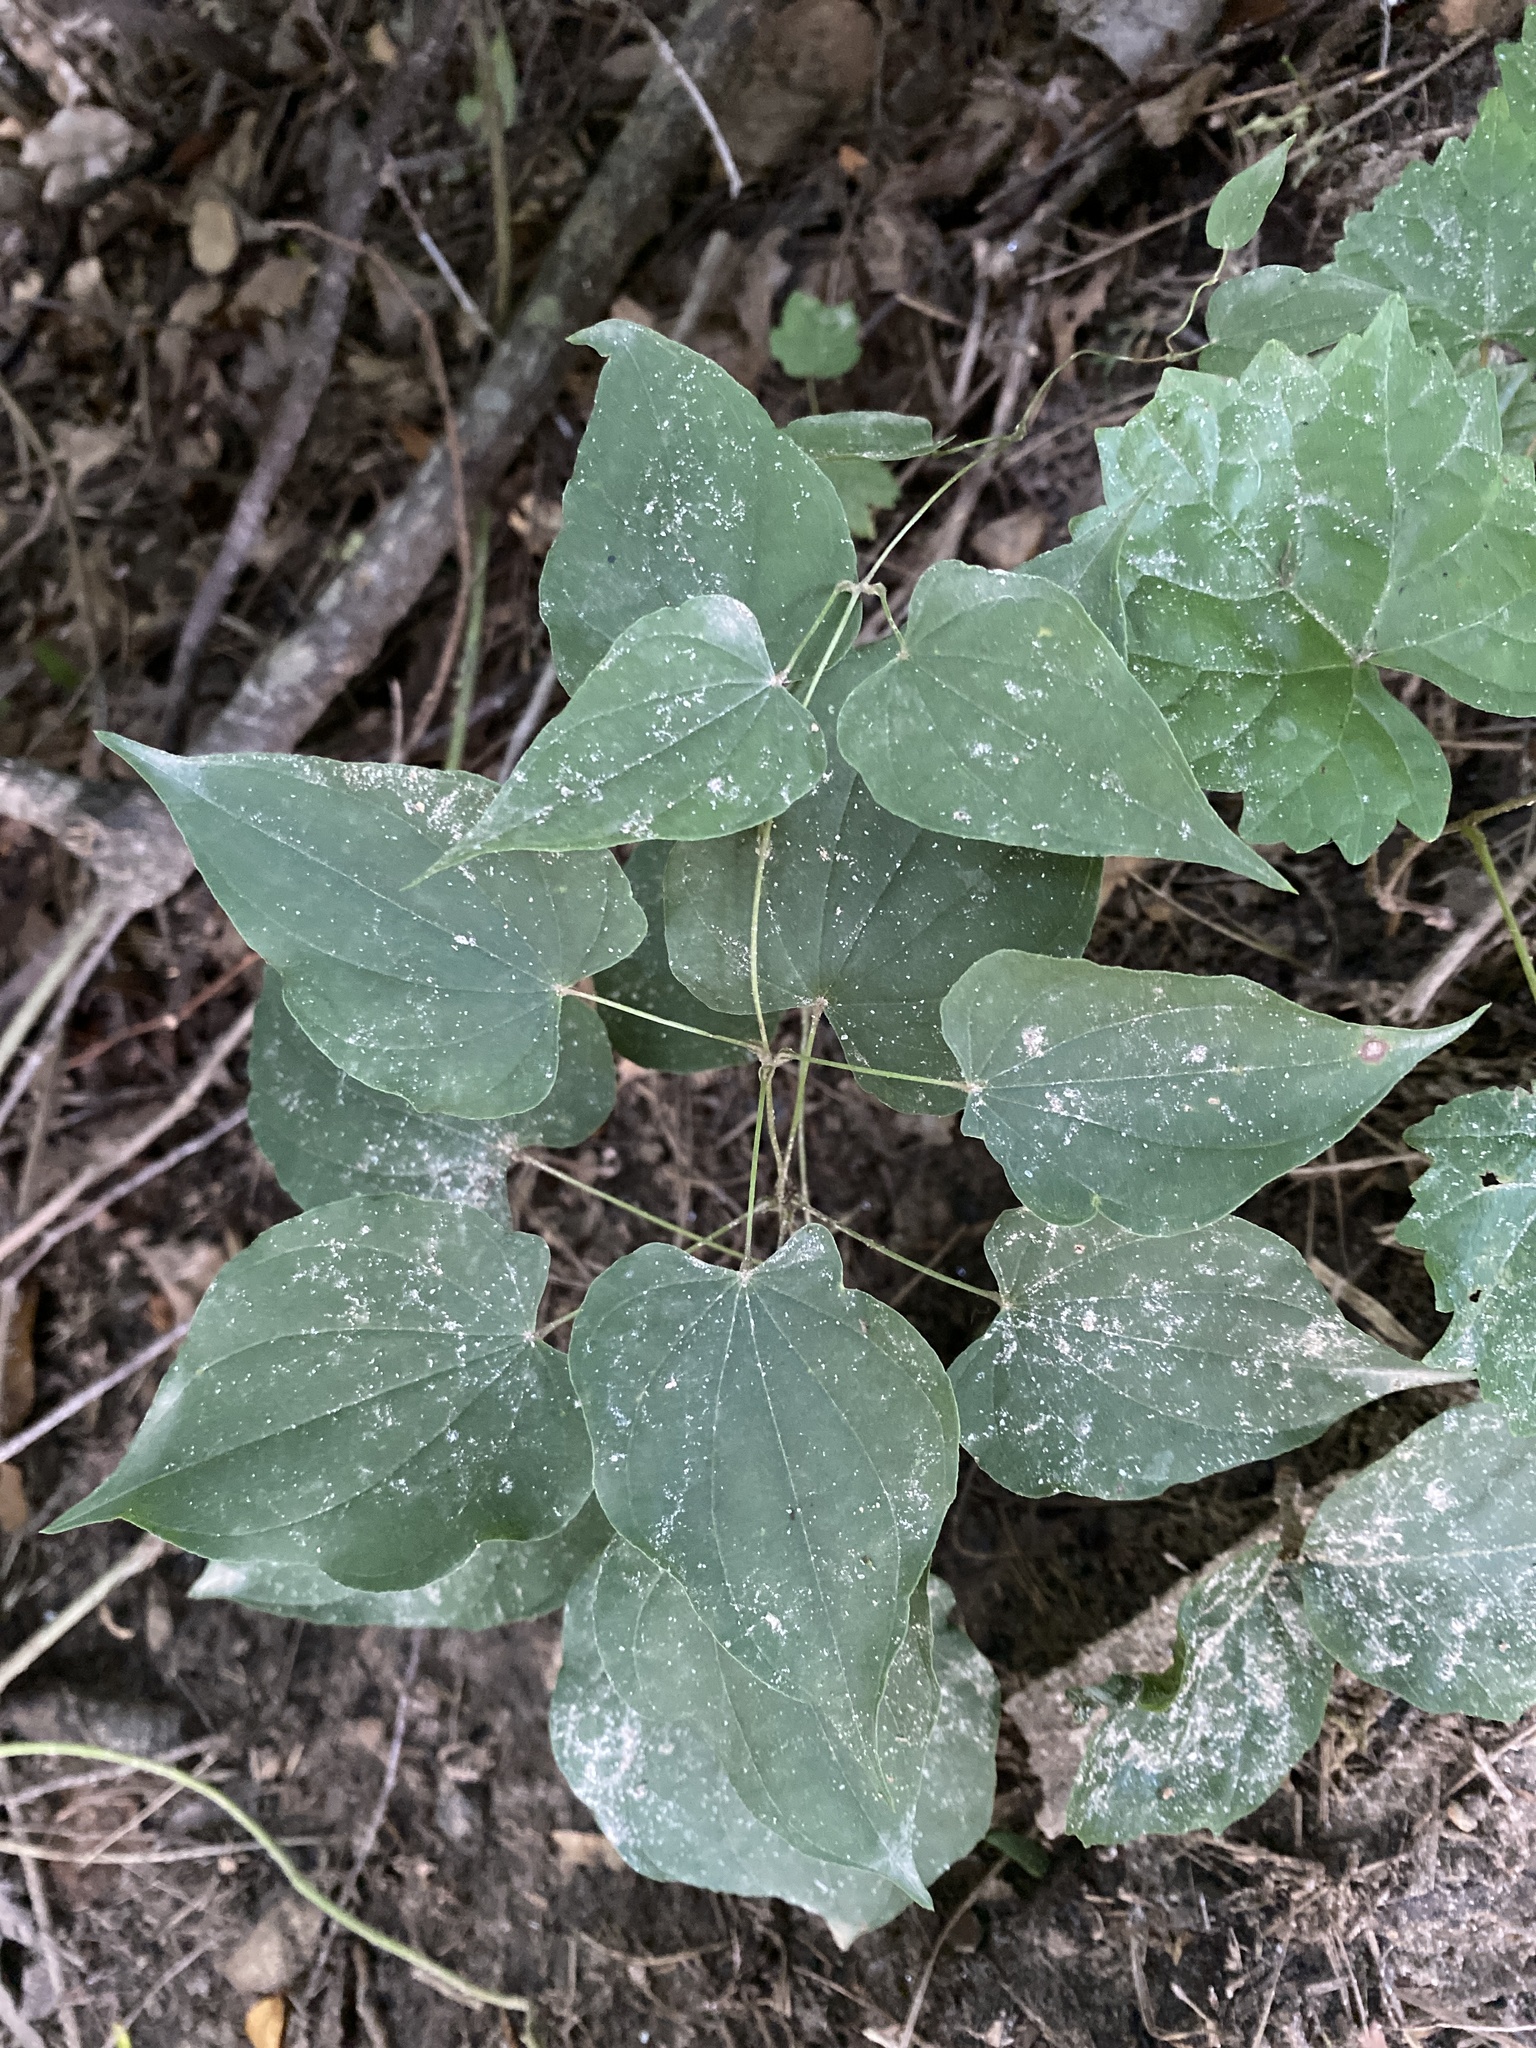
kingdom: Plantae
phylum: Tracheophyta
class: Liliopsida
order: Dioscoreales
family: Dioscoreaceae
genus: Dioscorea
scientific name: Dioscorea villosa
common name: Wild yam
